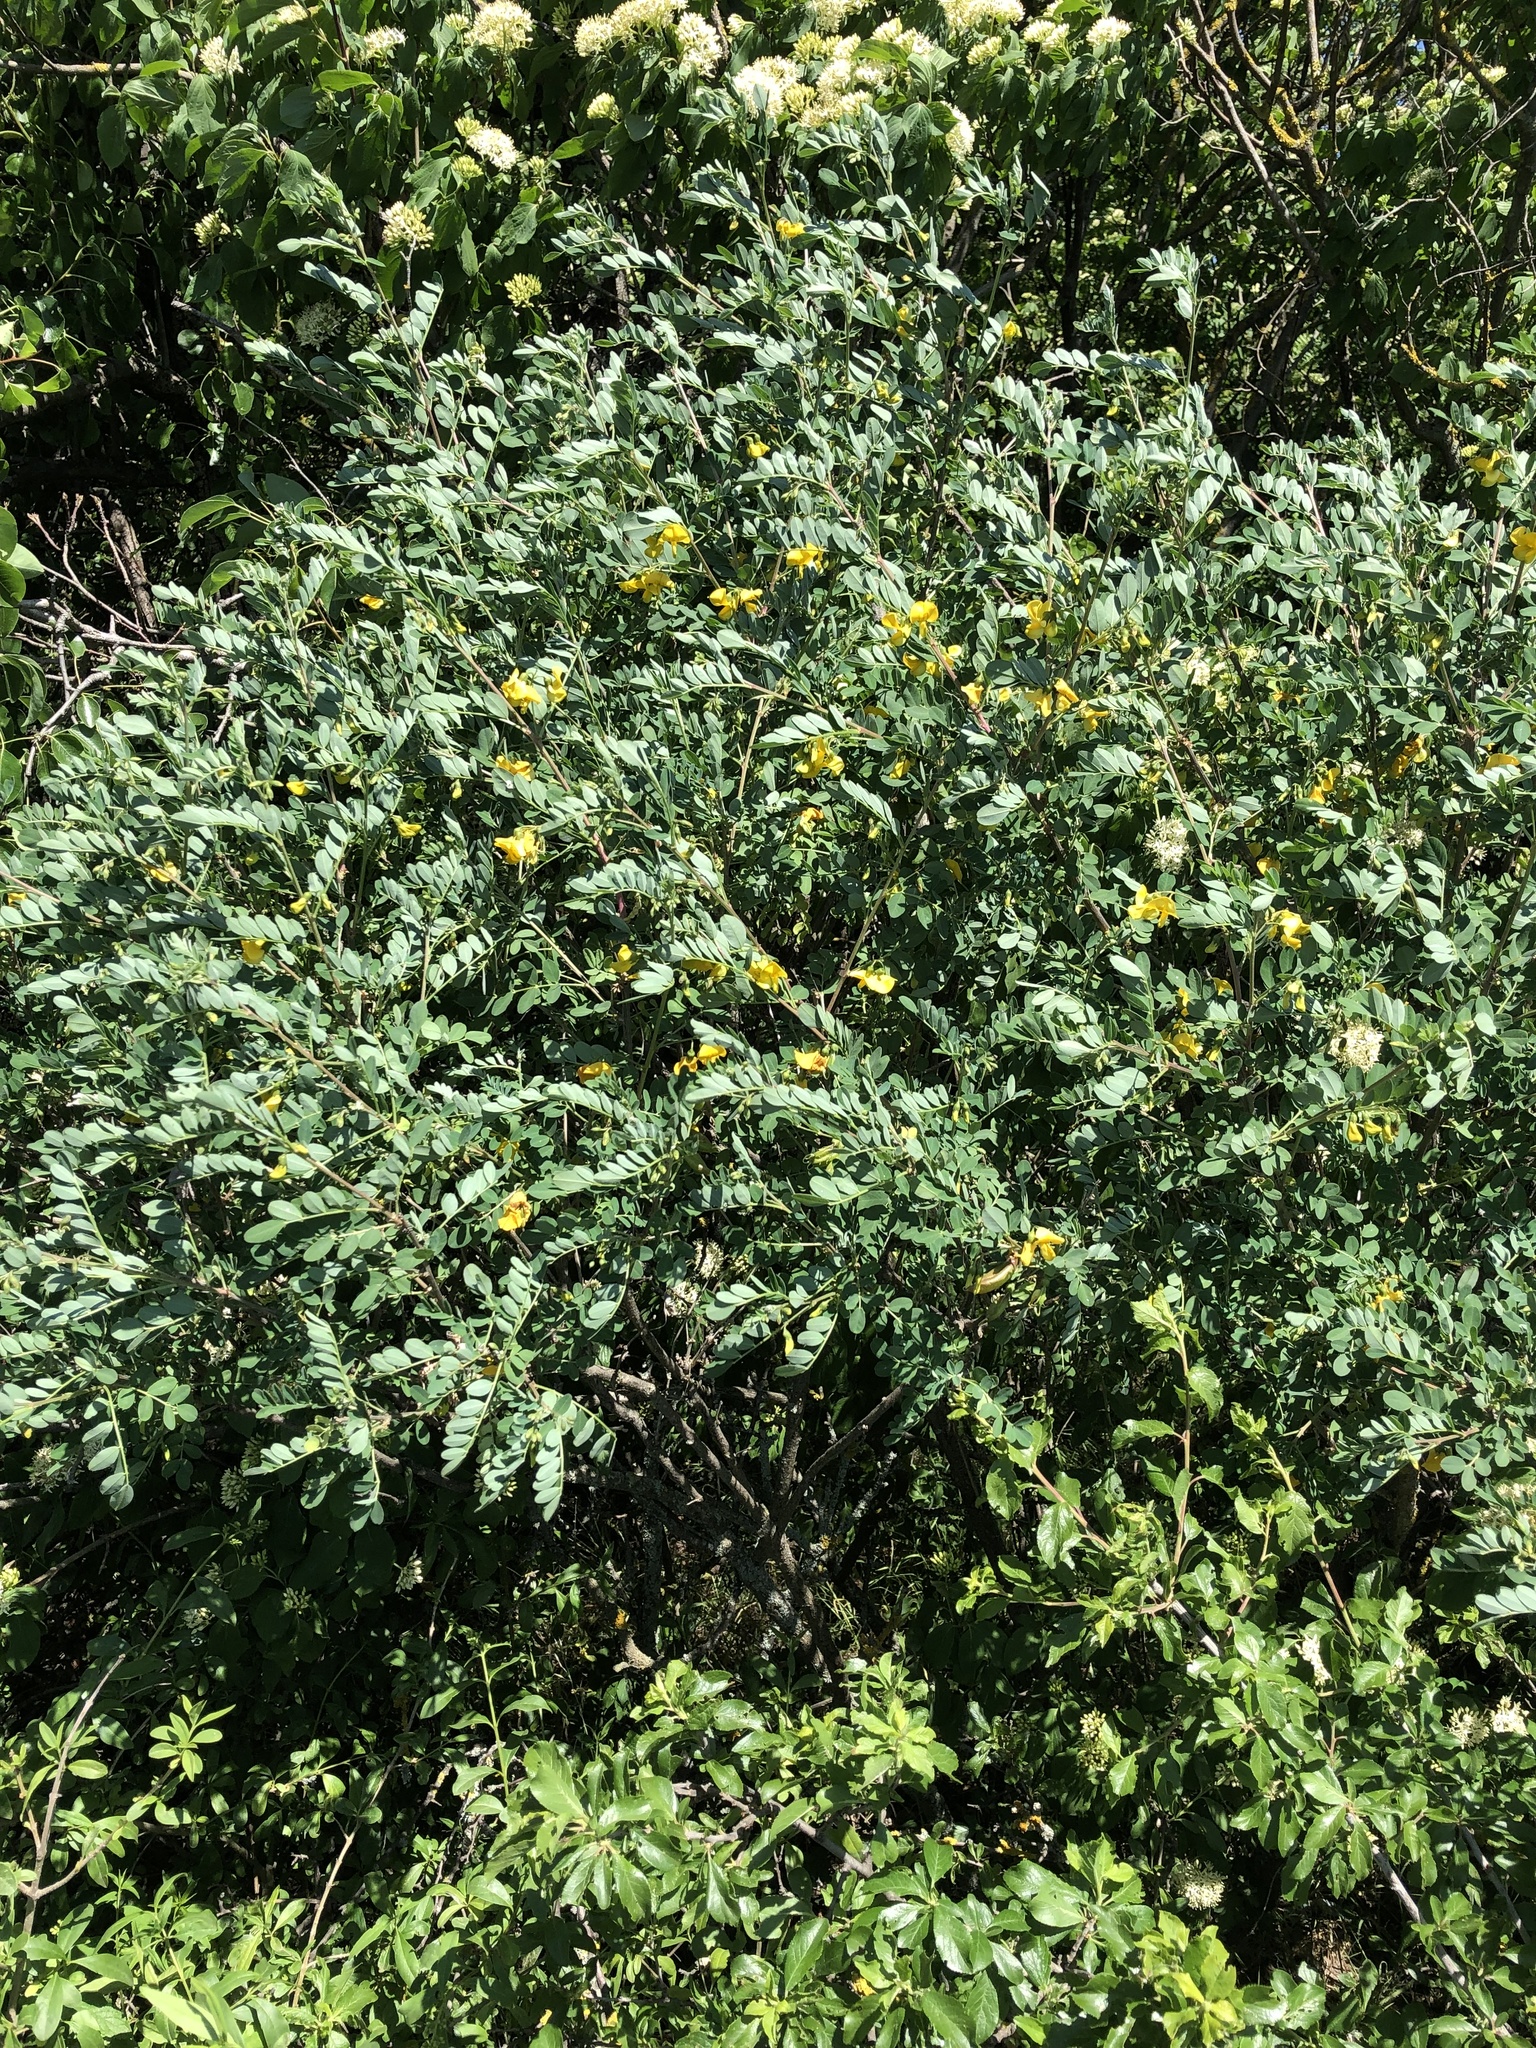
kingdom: Plantae
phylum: Tracheophyta
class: Magnoliopsida
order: Fabales
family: Fabaceae
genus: Colutea
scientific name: Colutea arborescens
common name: Bladder-senna
